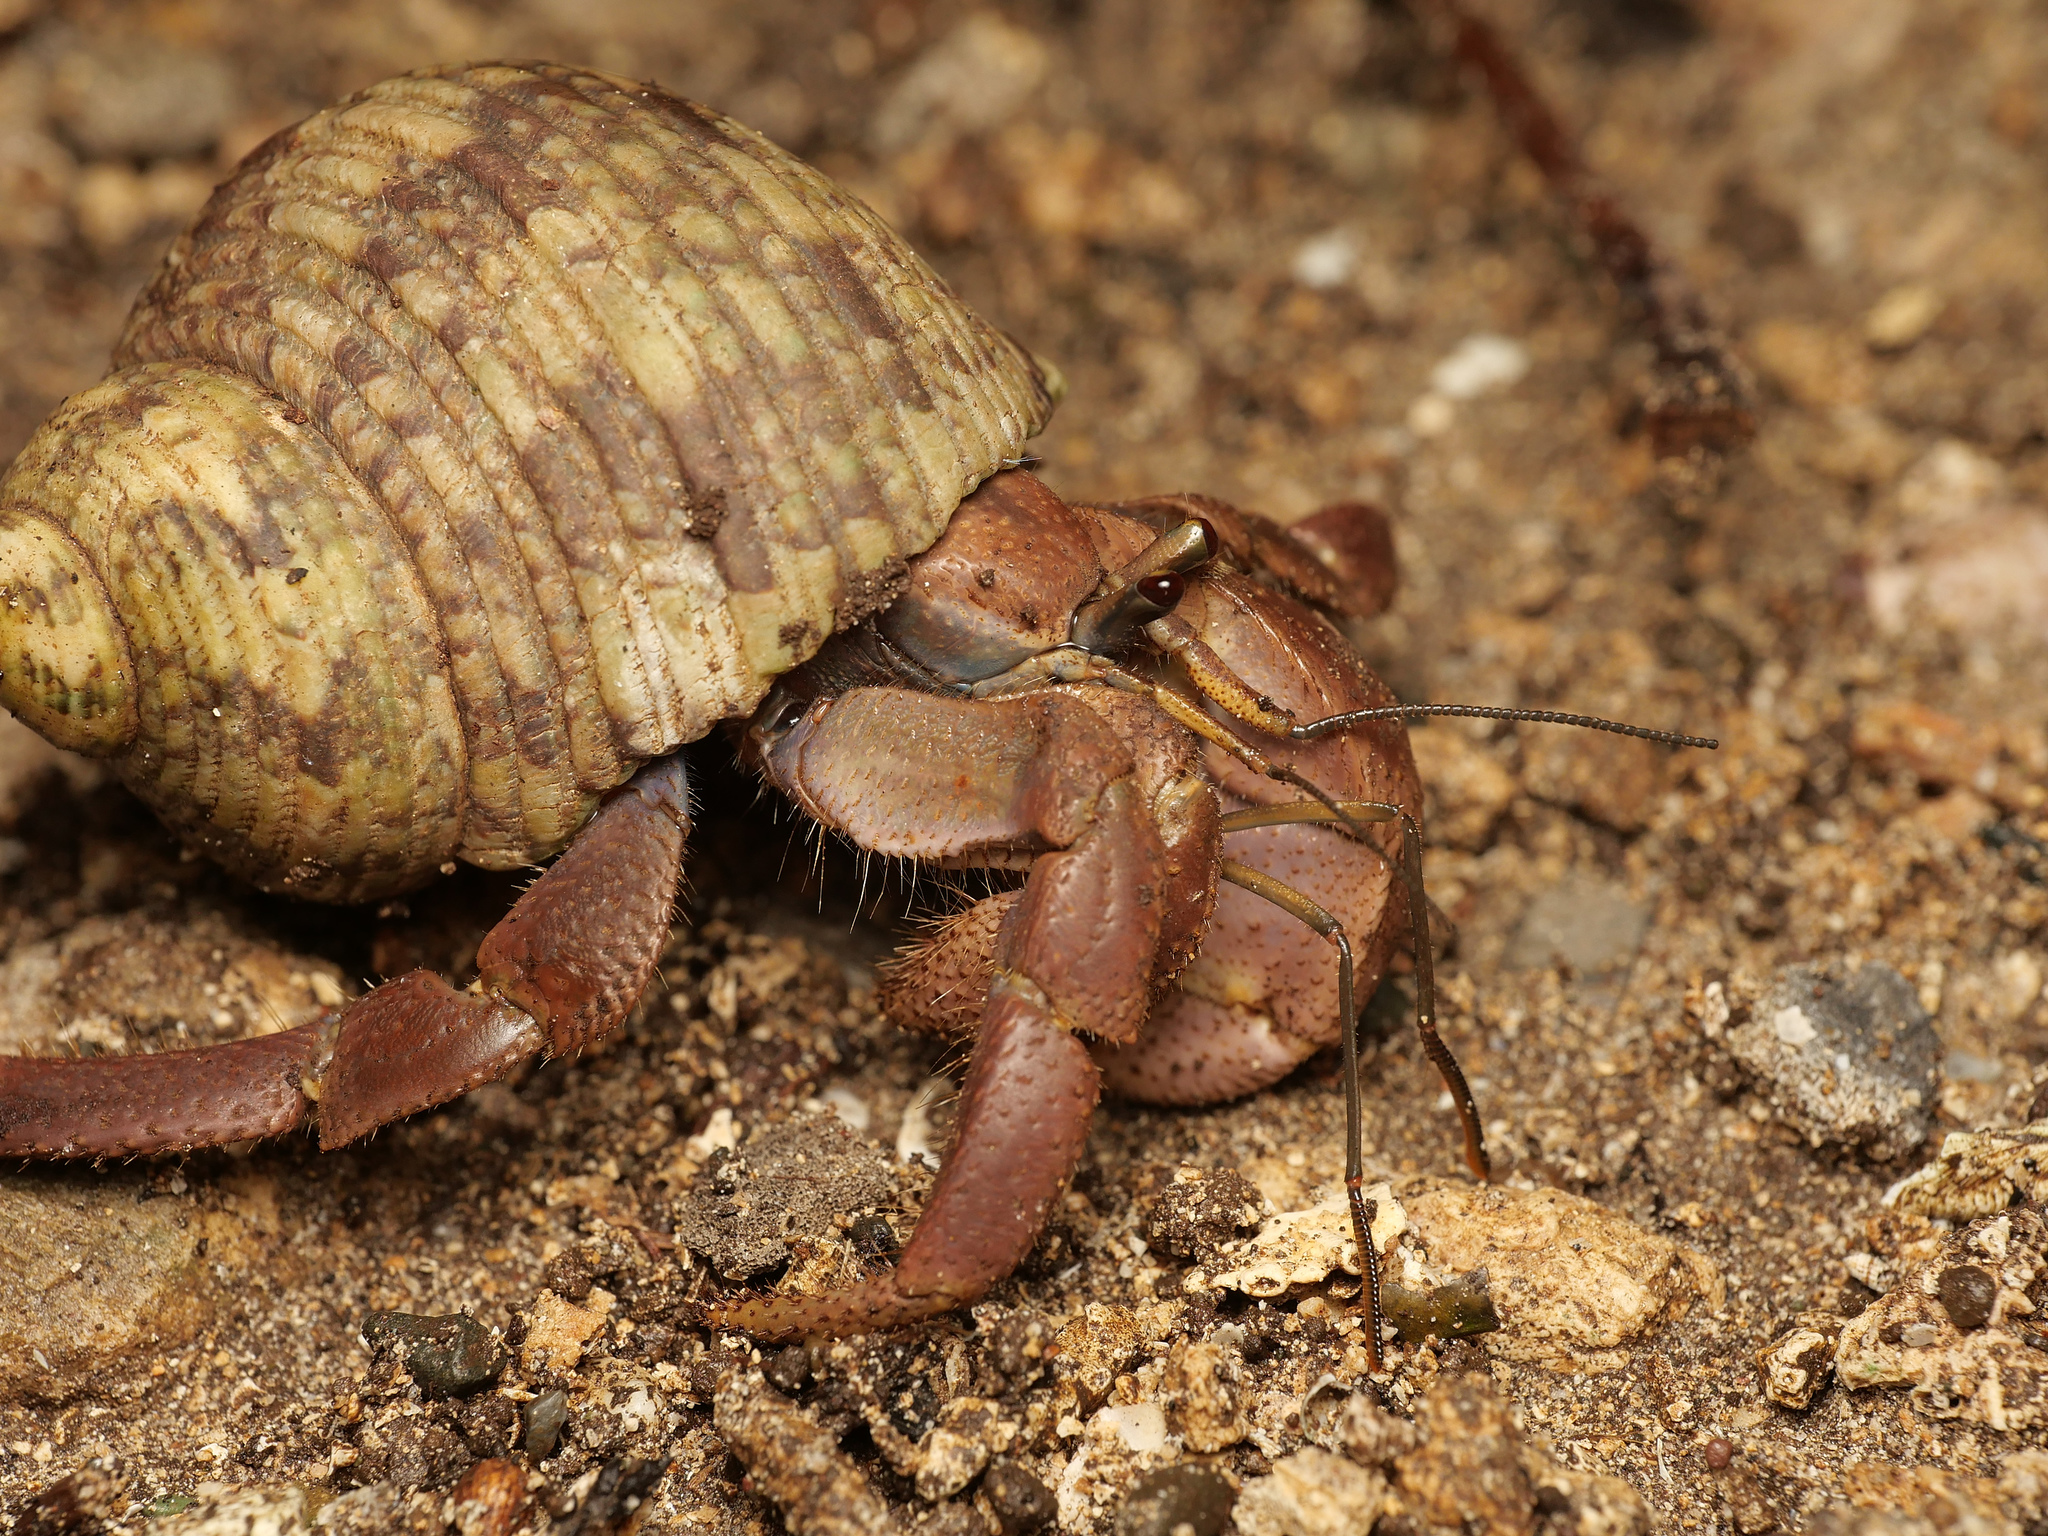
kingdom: Animalia
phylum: Arthropoda
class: Malacostraca
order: Decapoda
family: Coenobitidae
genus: Coenobita
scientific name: Coenobita brevimanus
